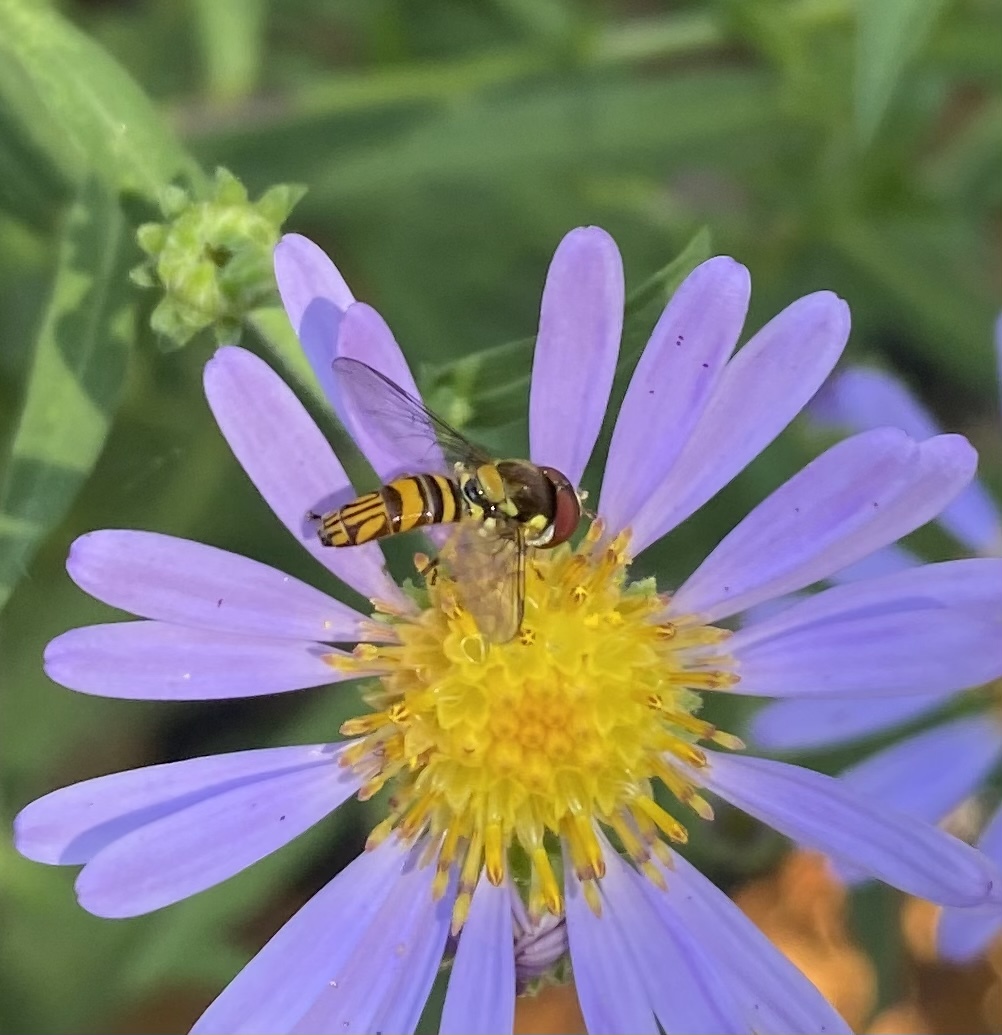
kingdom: Animalia
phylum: Arthropoda
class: Insecta
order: Diptera
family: Syrphidae
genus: Allograpta
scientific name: Allograpta obliqua
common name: Common oblique syrphid
